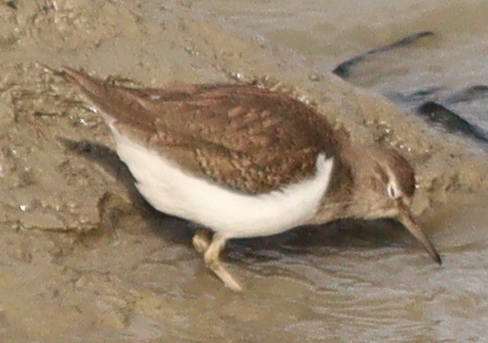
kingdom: Animalia
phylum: Chordata
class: Aves
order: Charadriiformes
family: Scolopacidae
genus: Actitis
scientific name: Actitis hypoleucos
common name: Common sandpiper
